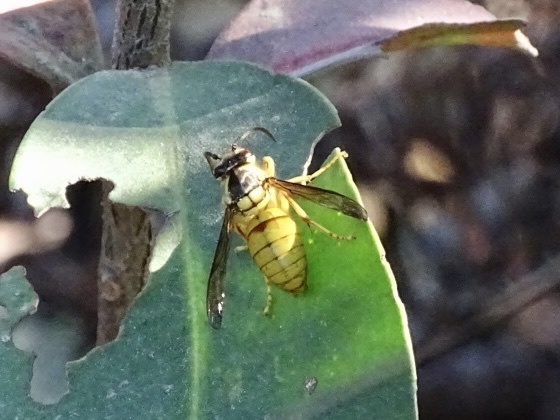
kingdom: Animalia
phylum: Arthropoda
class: Insecta
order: Hymenoptera
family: Vespidae
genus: Vespa
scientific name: Vespa bicolor
